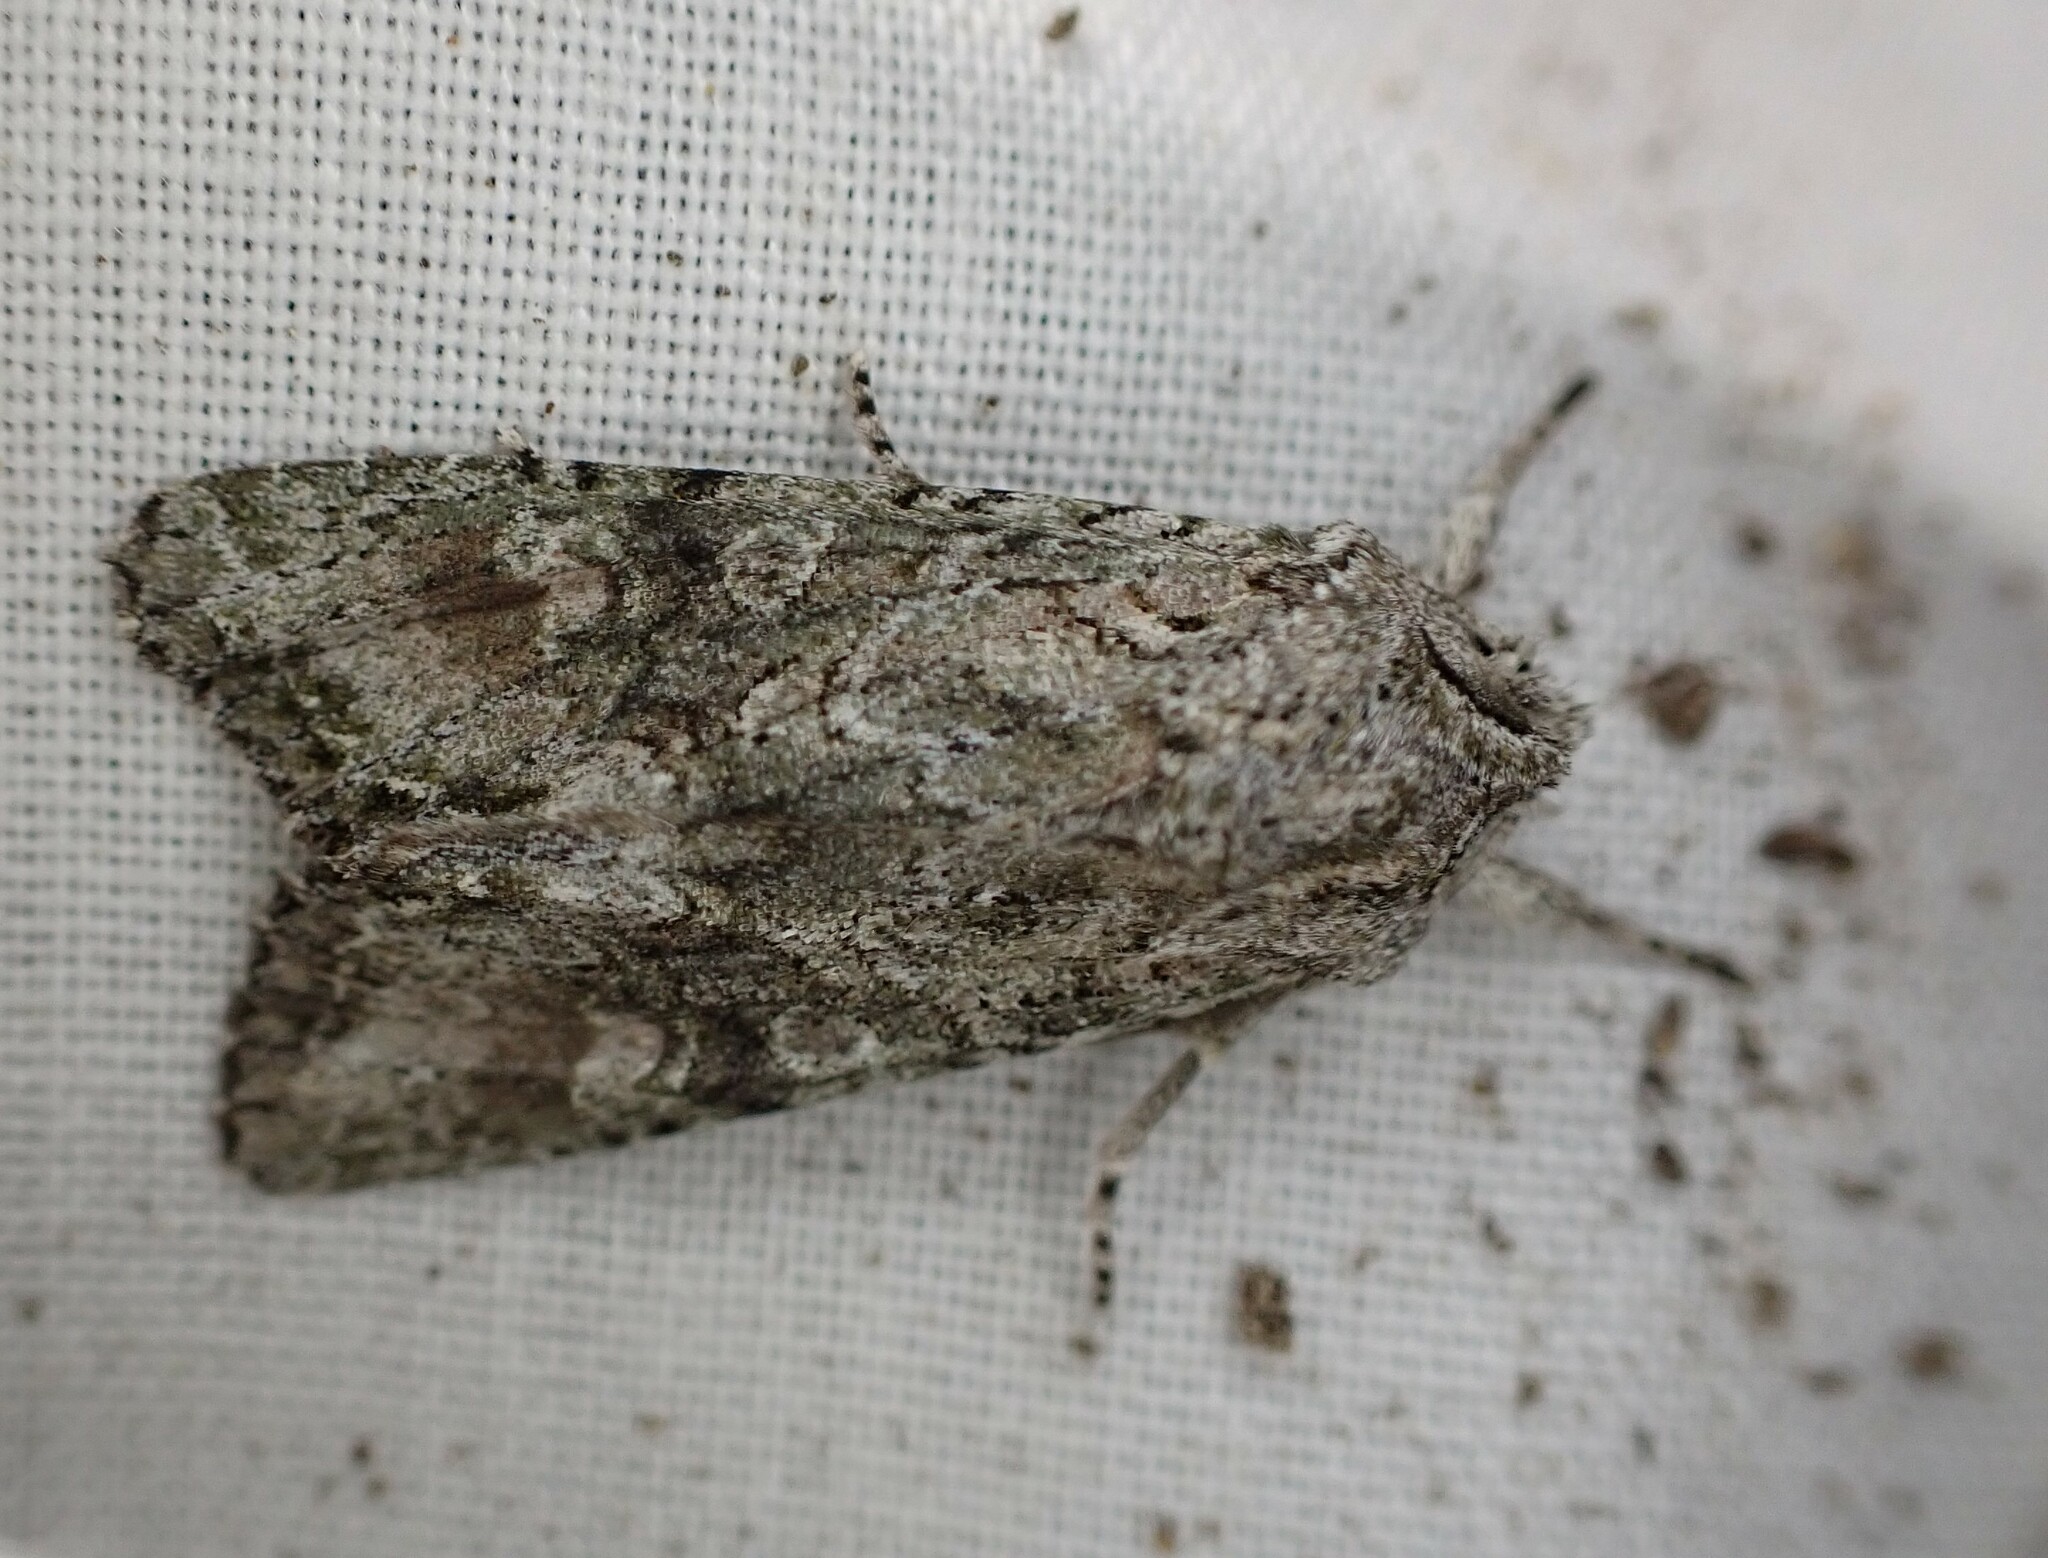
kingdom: Animalia
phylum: Arthropoda
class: Insecta
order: Lepidoptera
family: Noctuidae
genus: Ichneutica
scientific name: Ichneutica mutans
